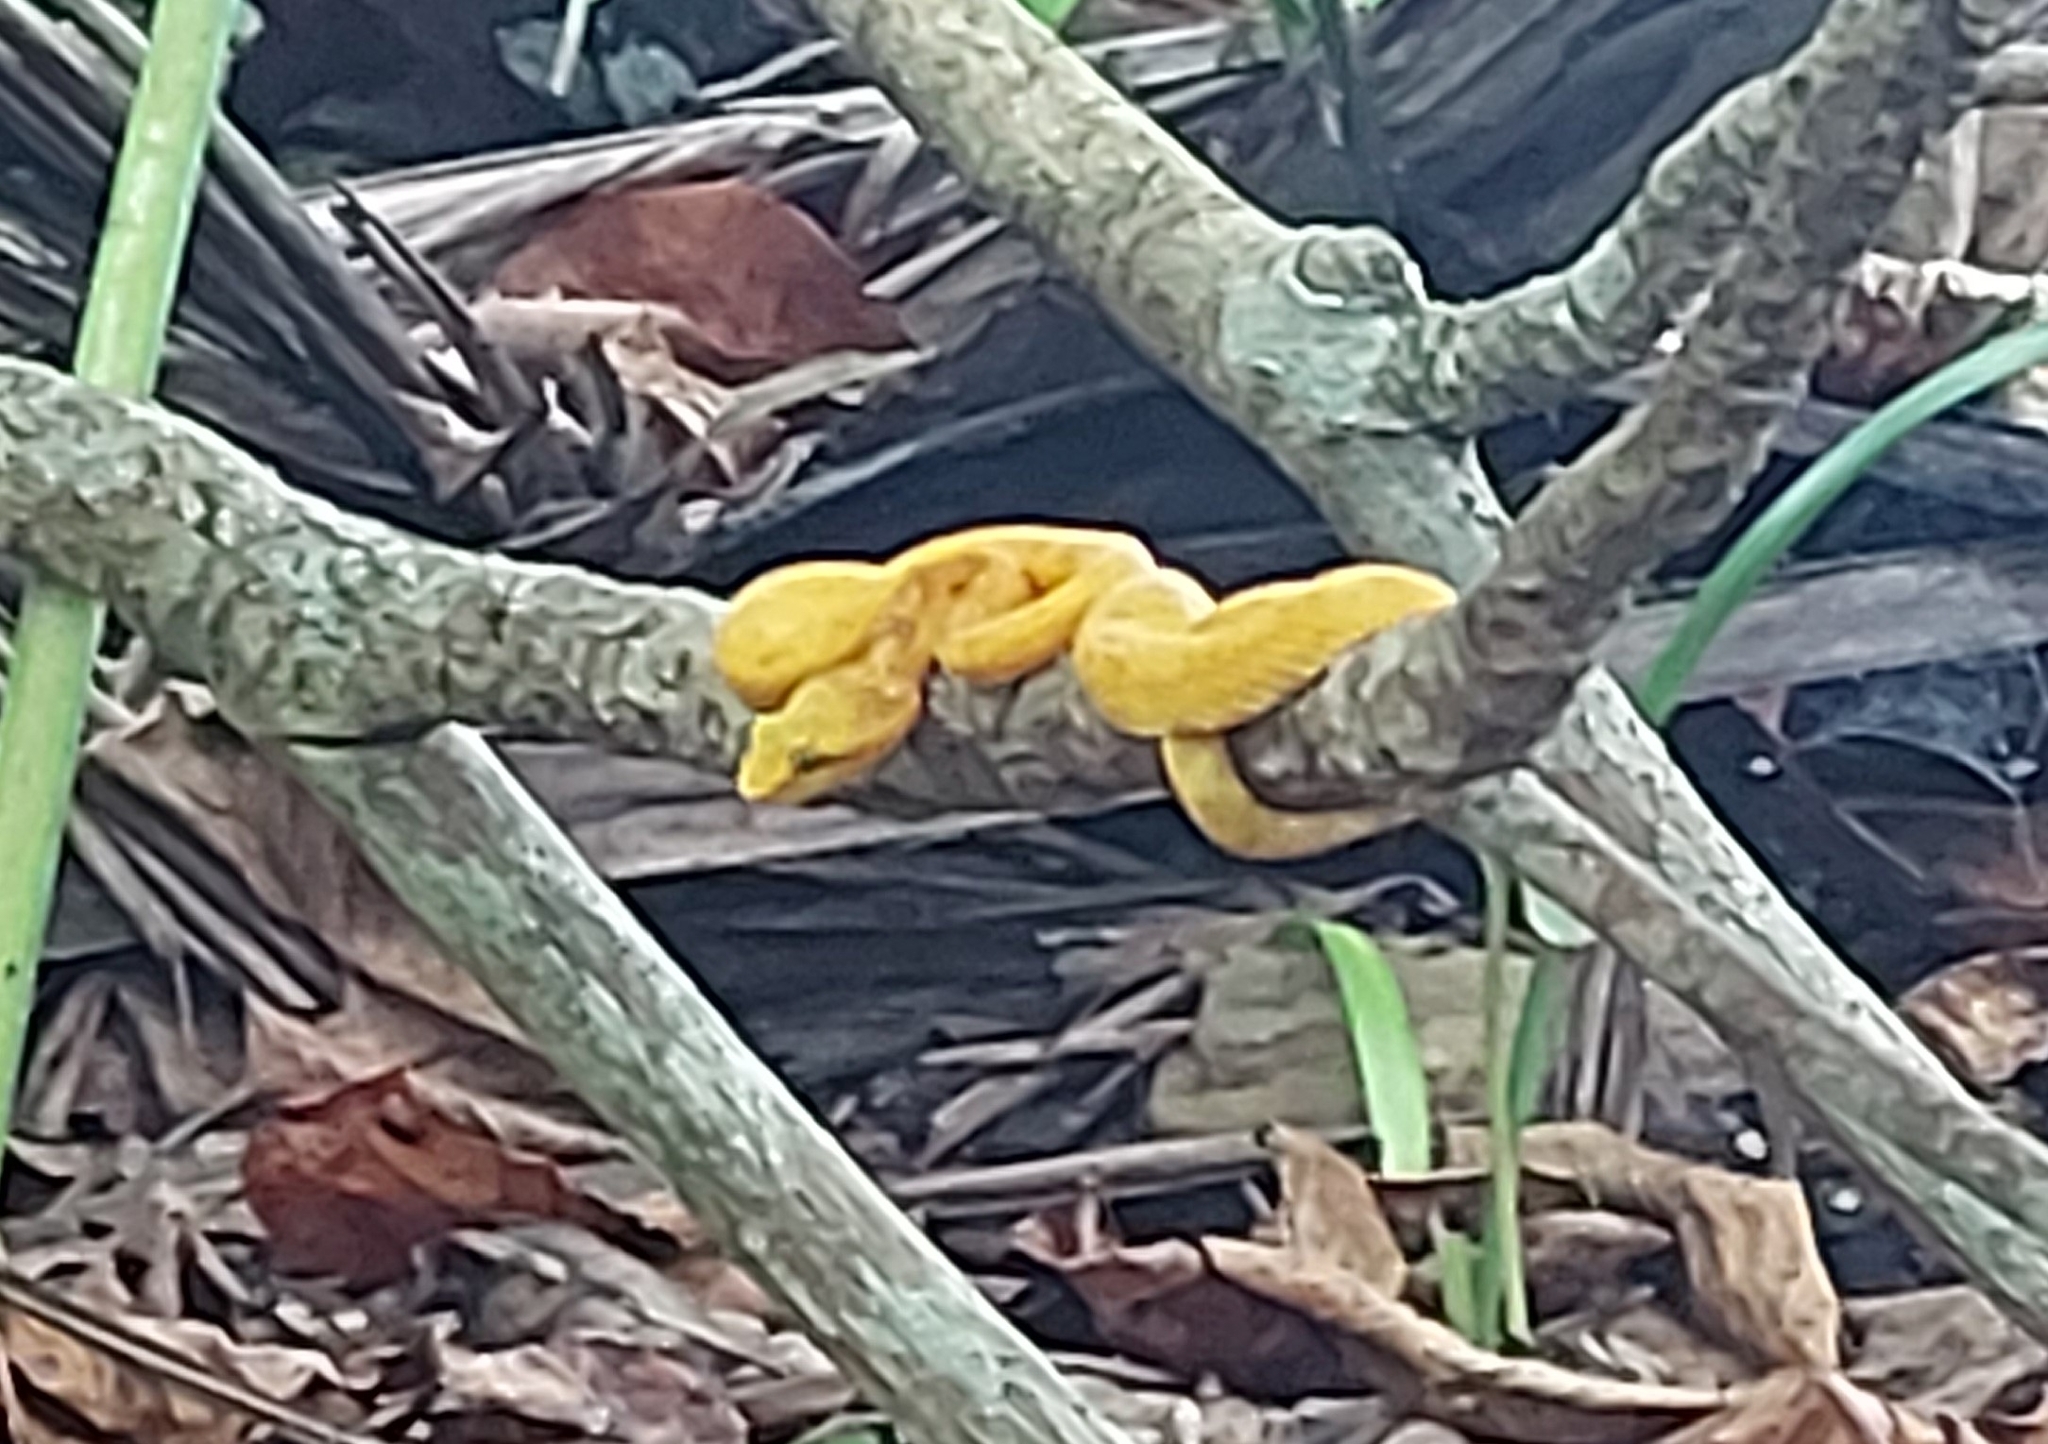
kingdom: Animalia
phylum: Chordata
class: Squamata
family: Viperidae
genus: Bothriechis
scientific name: Bothriechis schlegelii
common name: Eyelash viper
